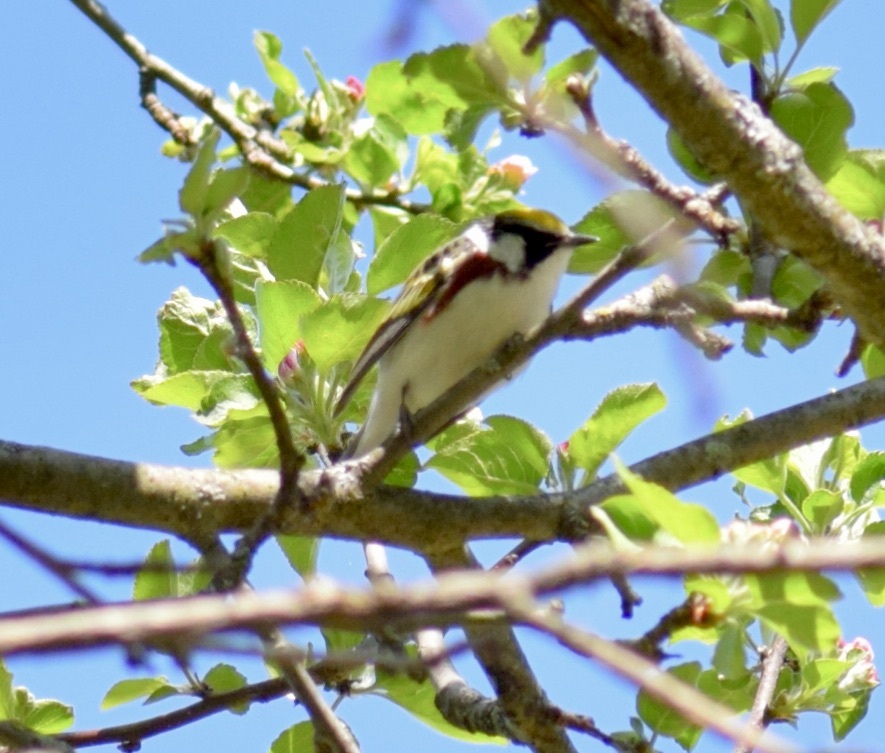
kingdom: Animalia
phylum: Chordata
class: Aves
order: Passeriformes
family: Parulidae
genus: Setophaga
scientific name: Setophaga pensylvanica
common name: Chestnut-sided warbler
